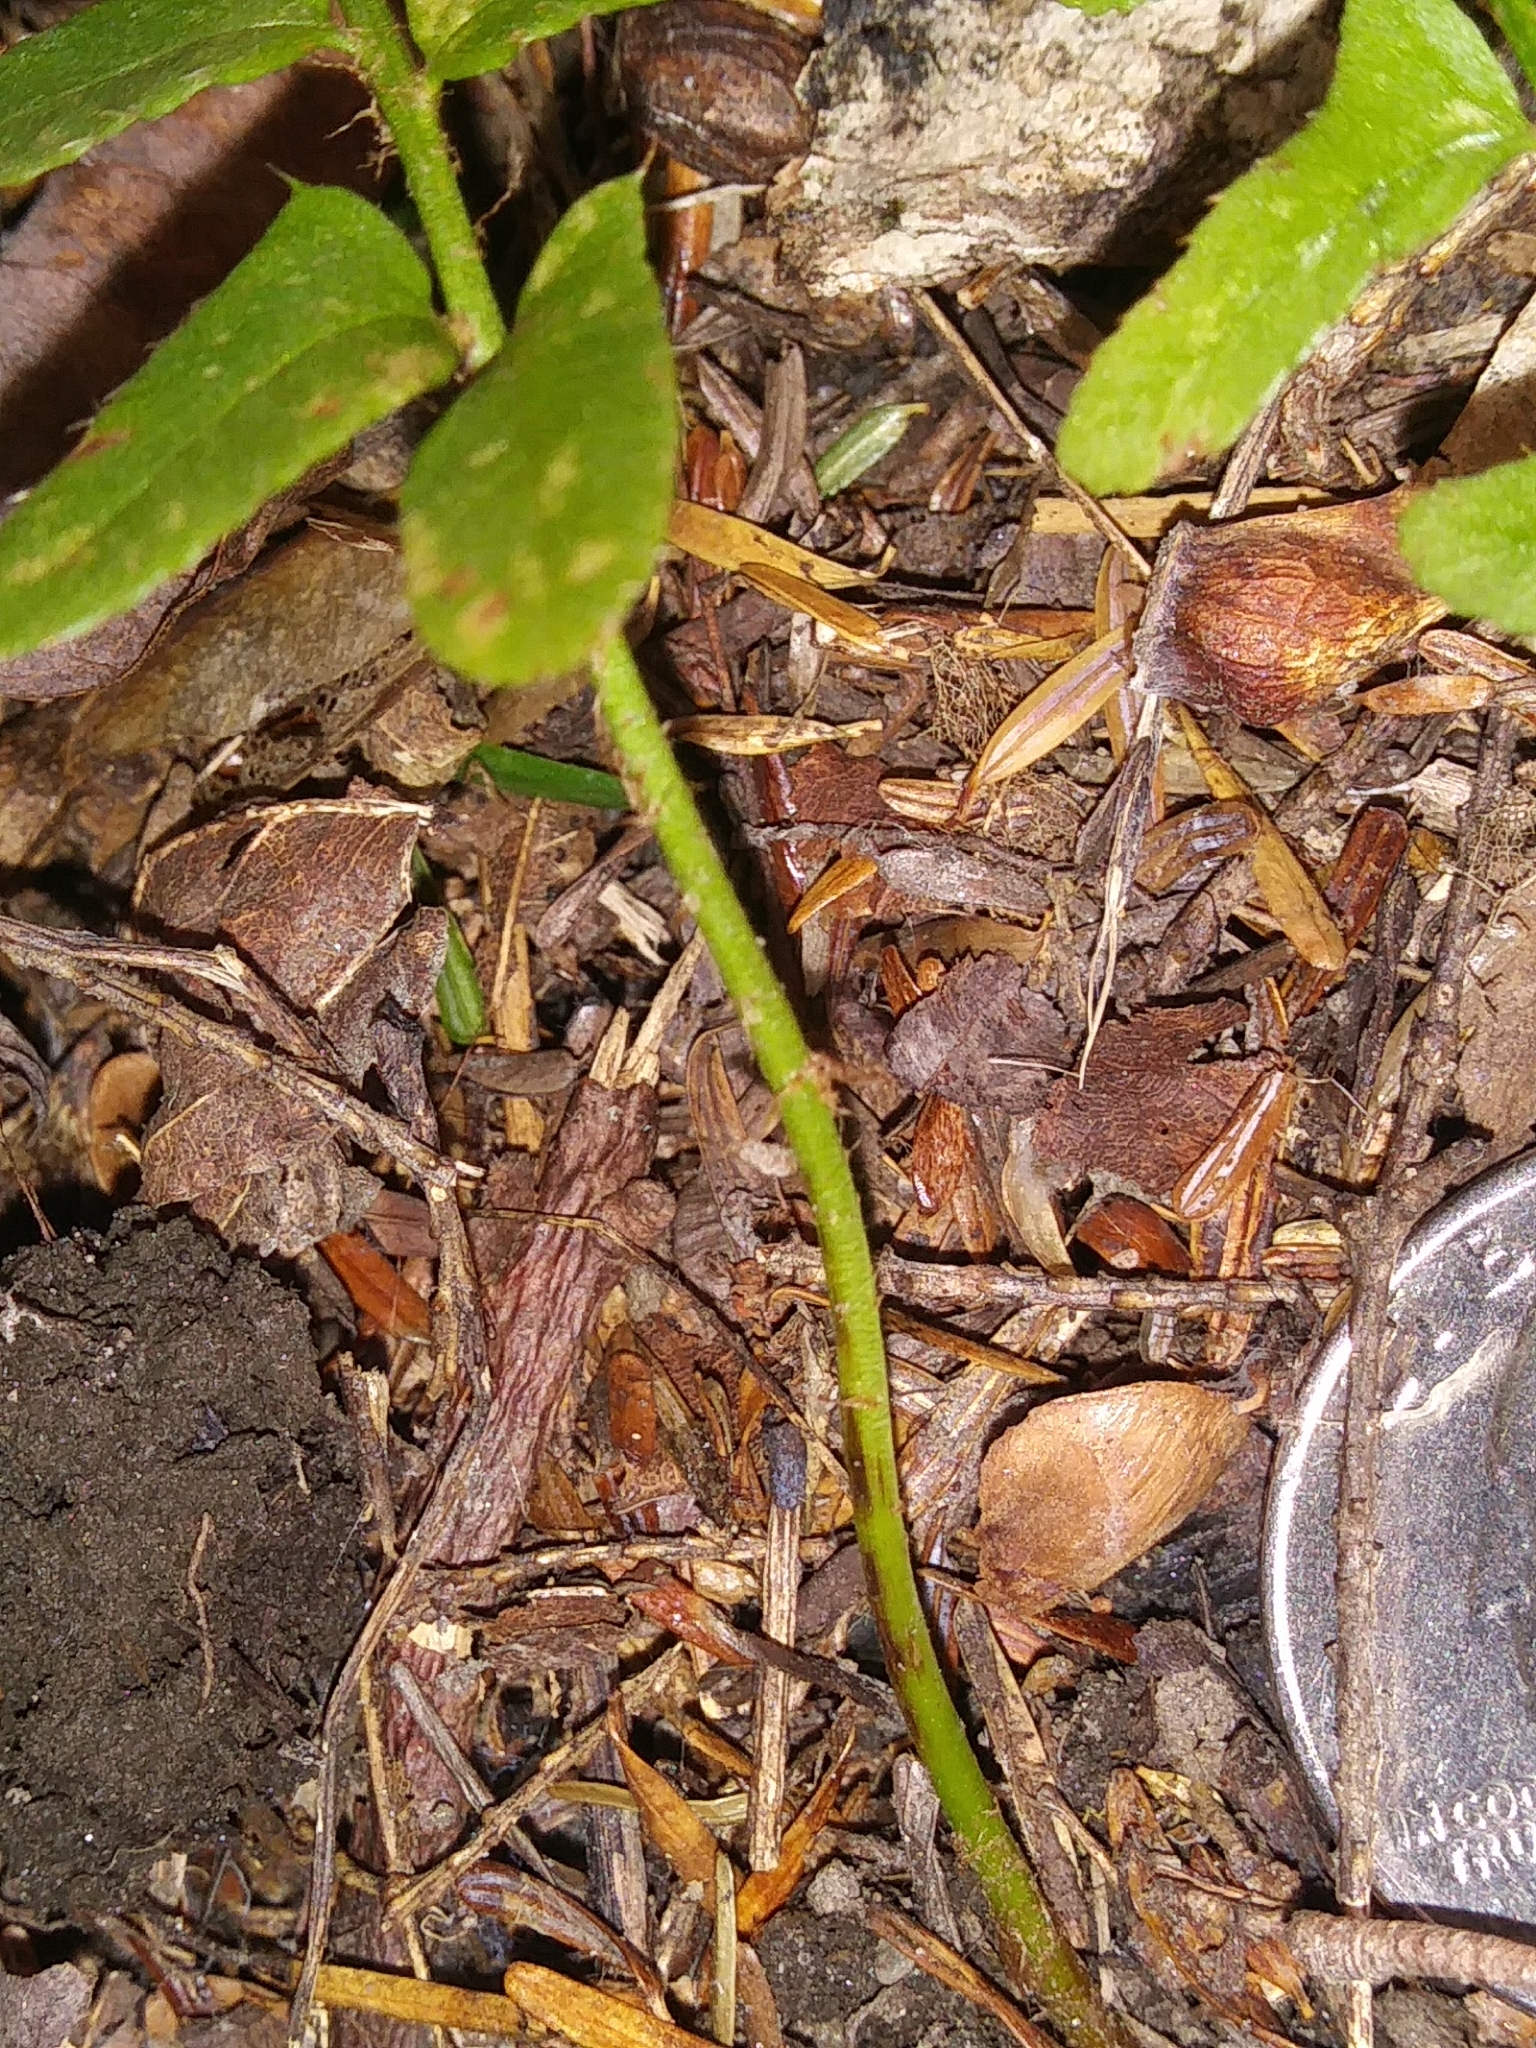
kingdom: Plantae
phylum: Tracheophyta
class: Polypodiopsida
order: Polypodiales
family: Dryopteridaceae
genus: Polystichum
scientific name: Polystichum acrostichoides
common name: Christmas fern
